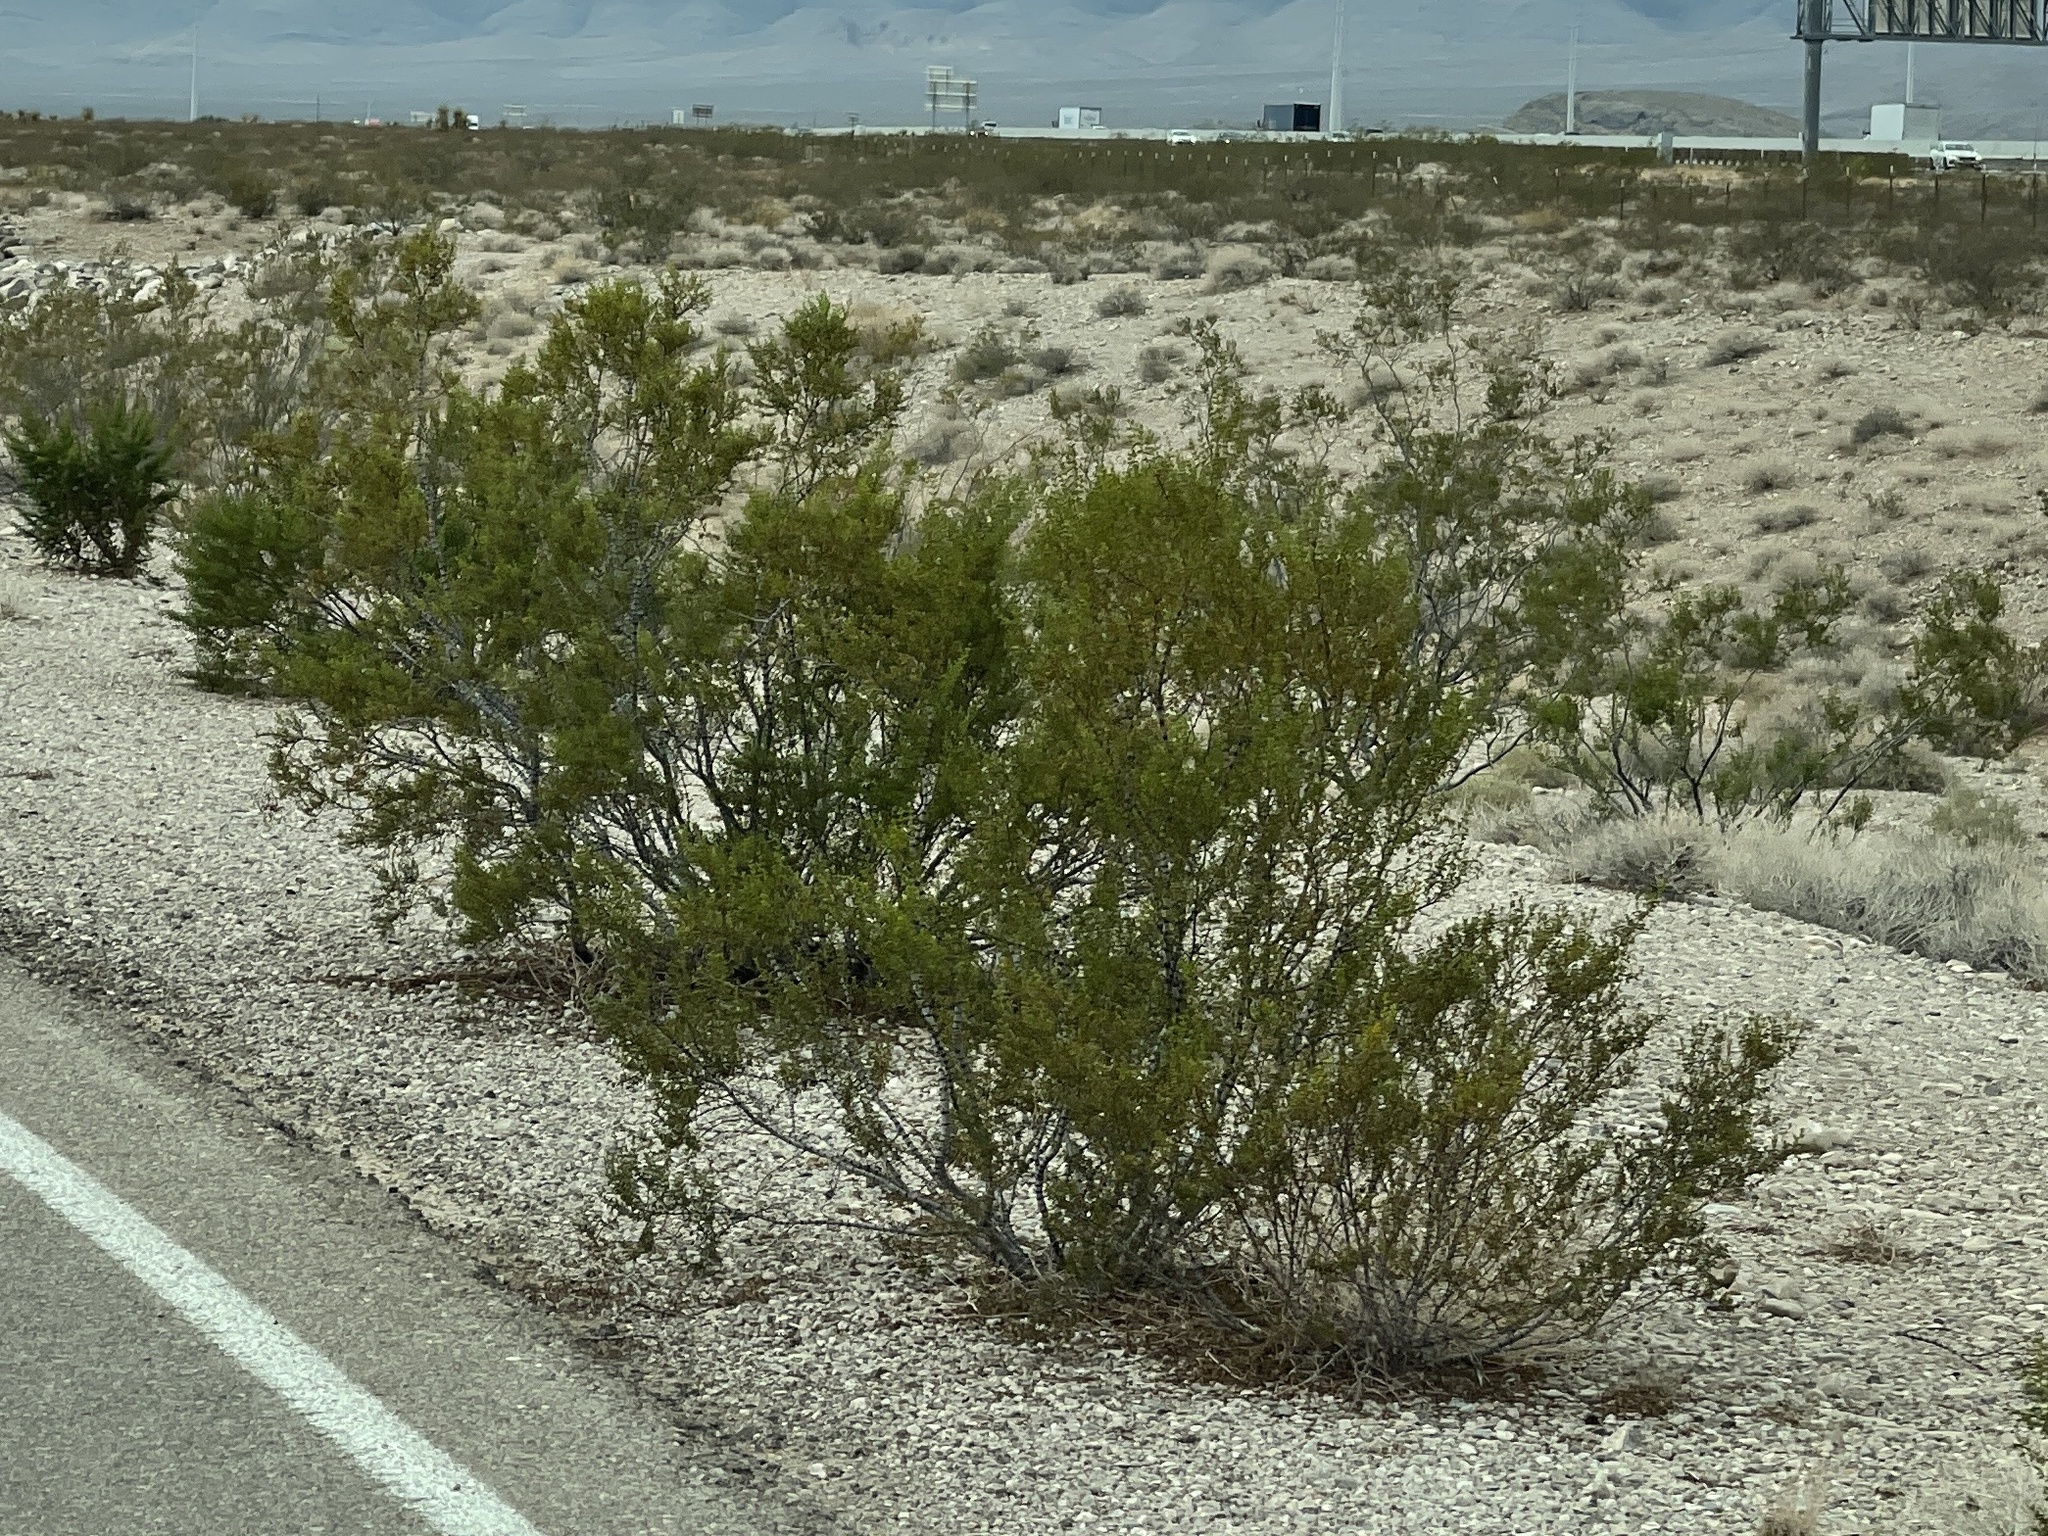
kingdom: Plantae
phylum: Tracheophyta
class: Magnoliopsida
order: Zygophyllales
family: Zygophyllaceae
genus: Larrea
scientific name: Larrea tridentata
